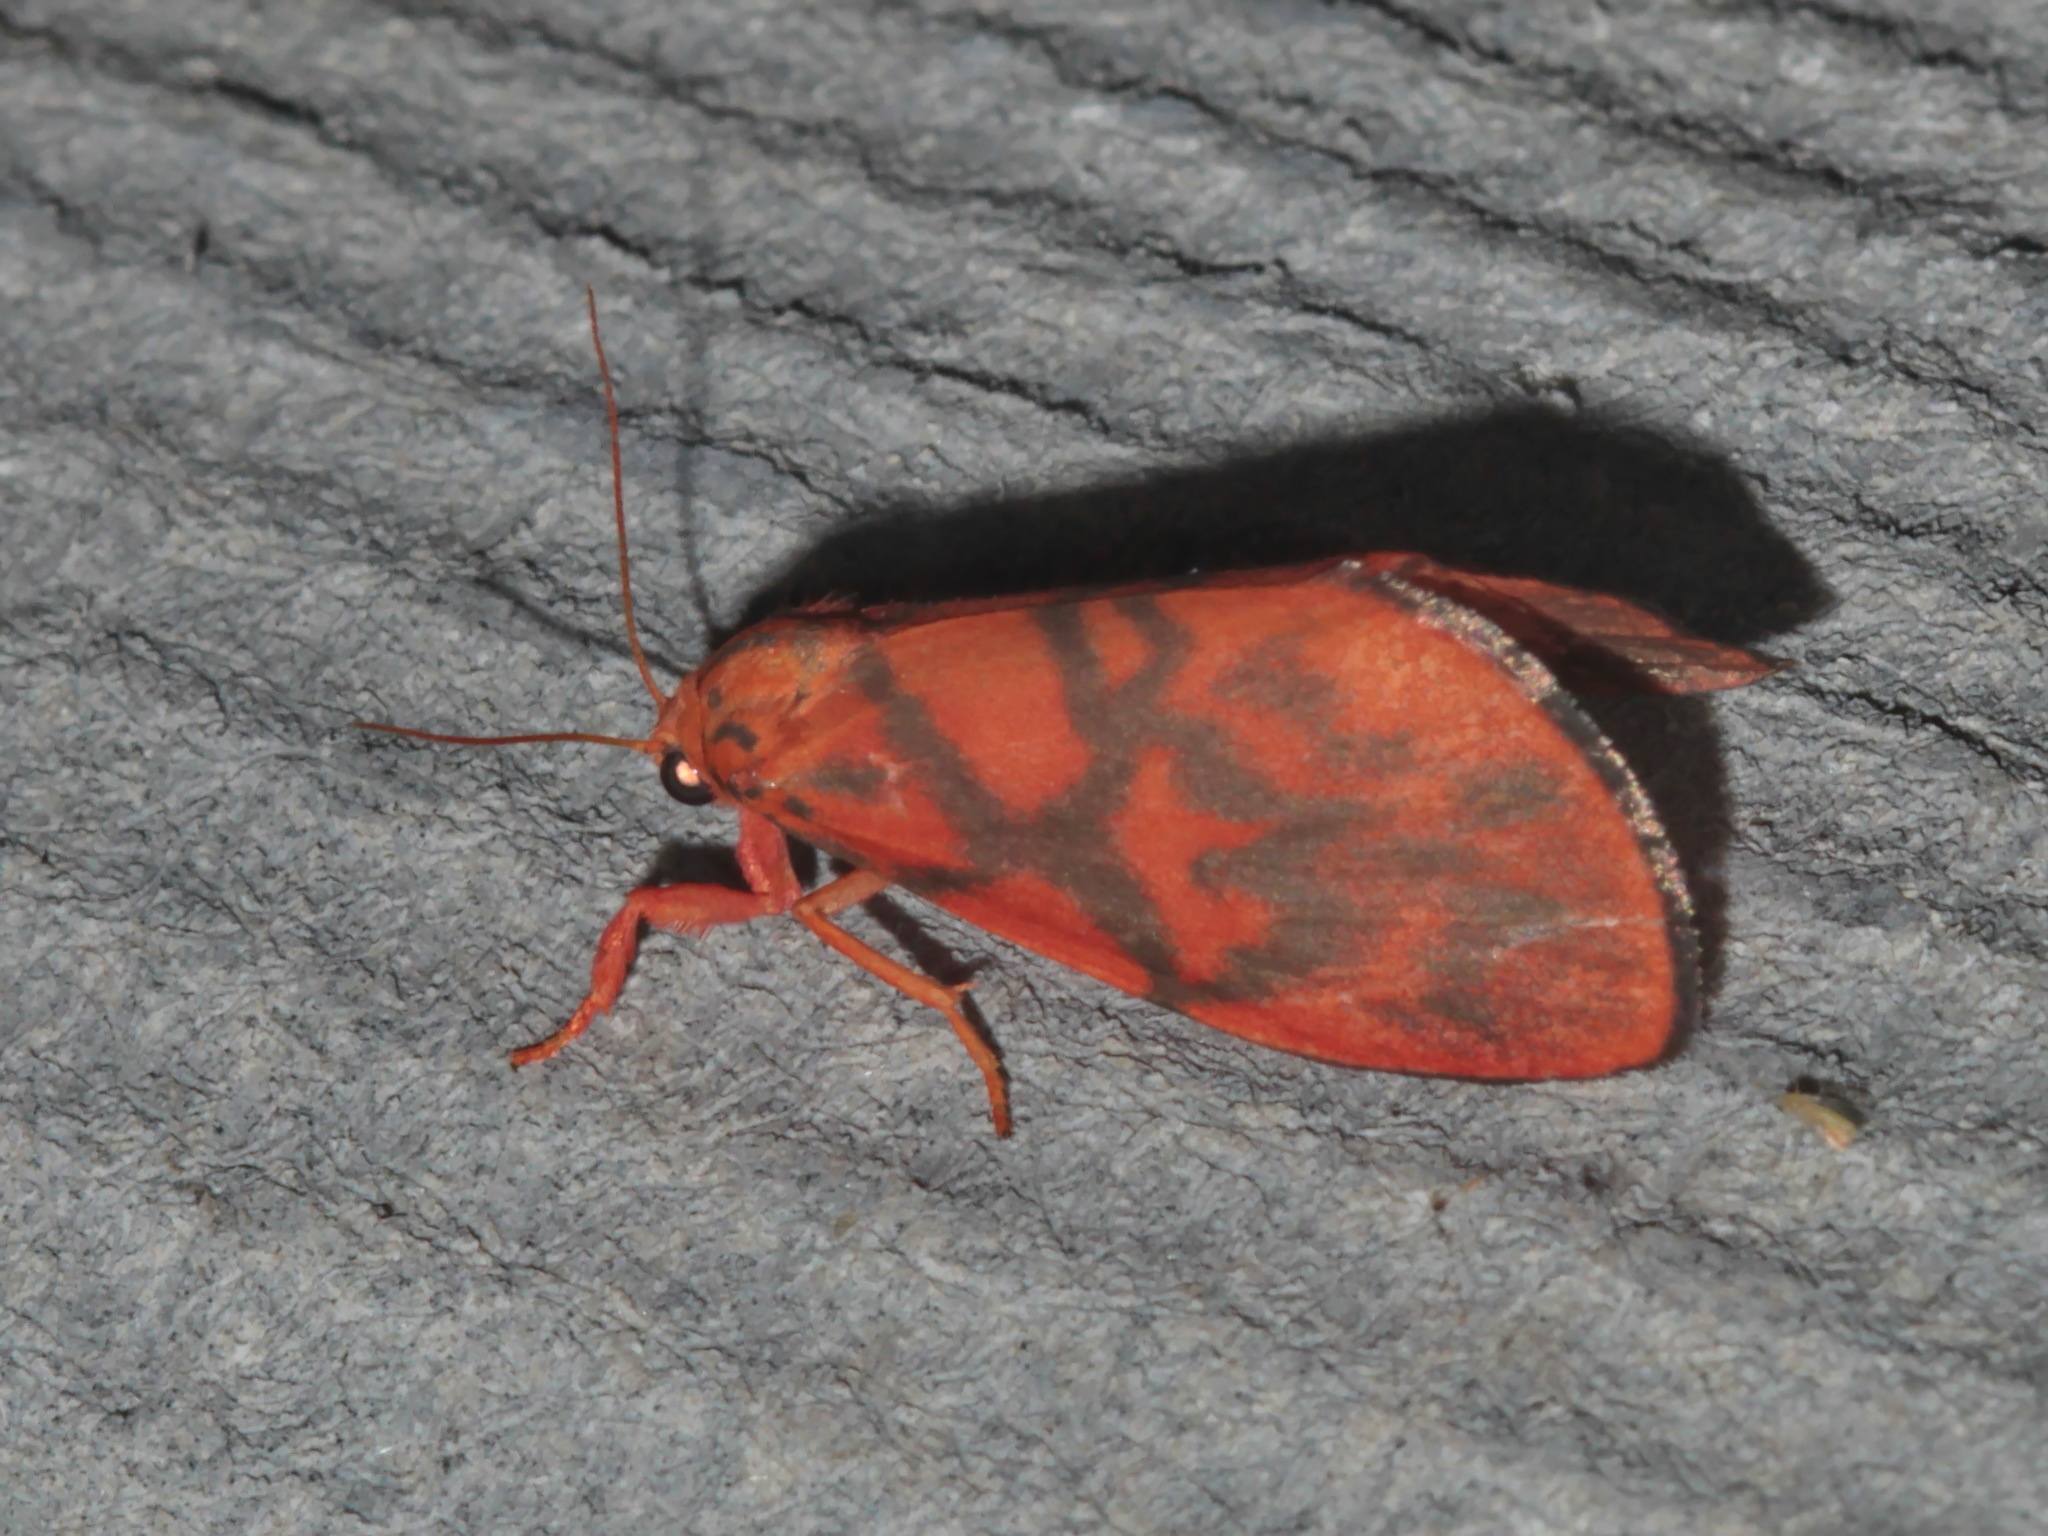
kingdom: Animalia
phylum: Arthropoda
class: Insecta
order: Lepidoptera
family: Erebidae
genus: Integrivalvia
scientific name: Integrivalvia exclusa
